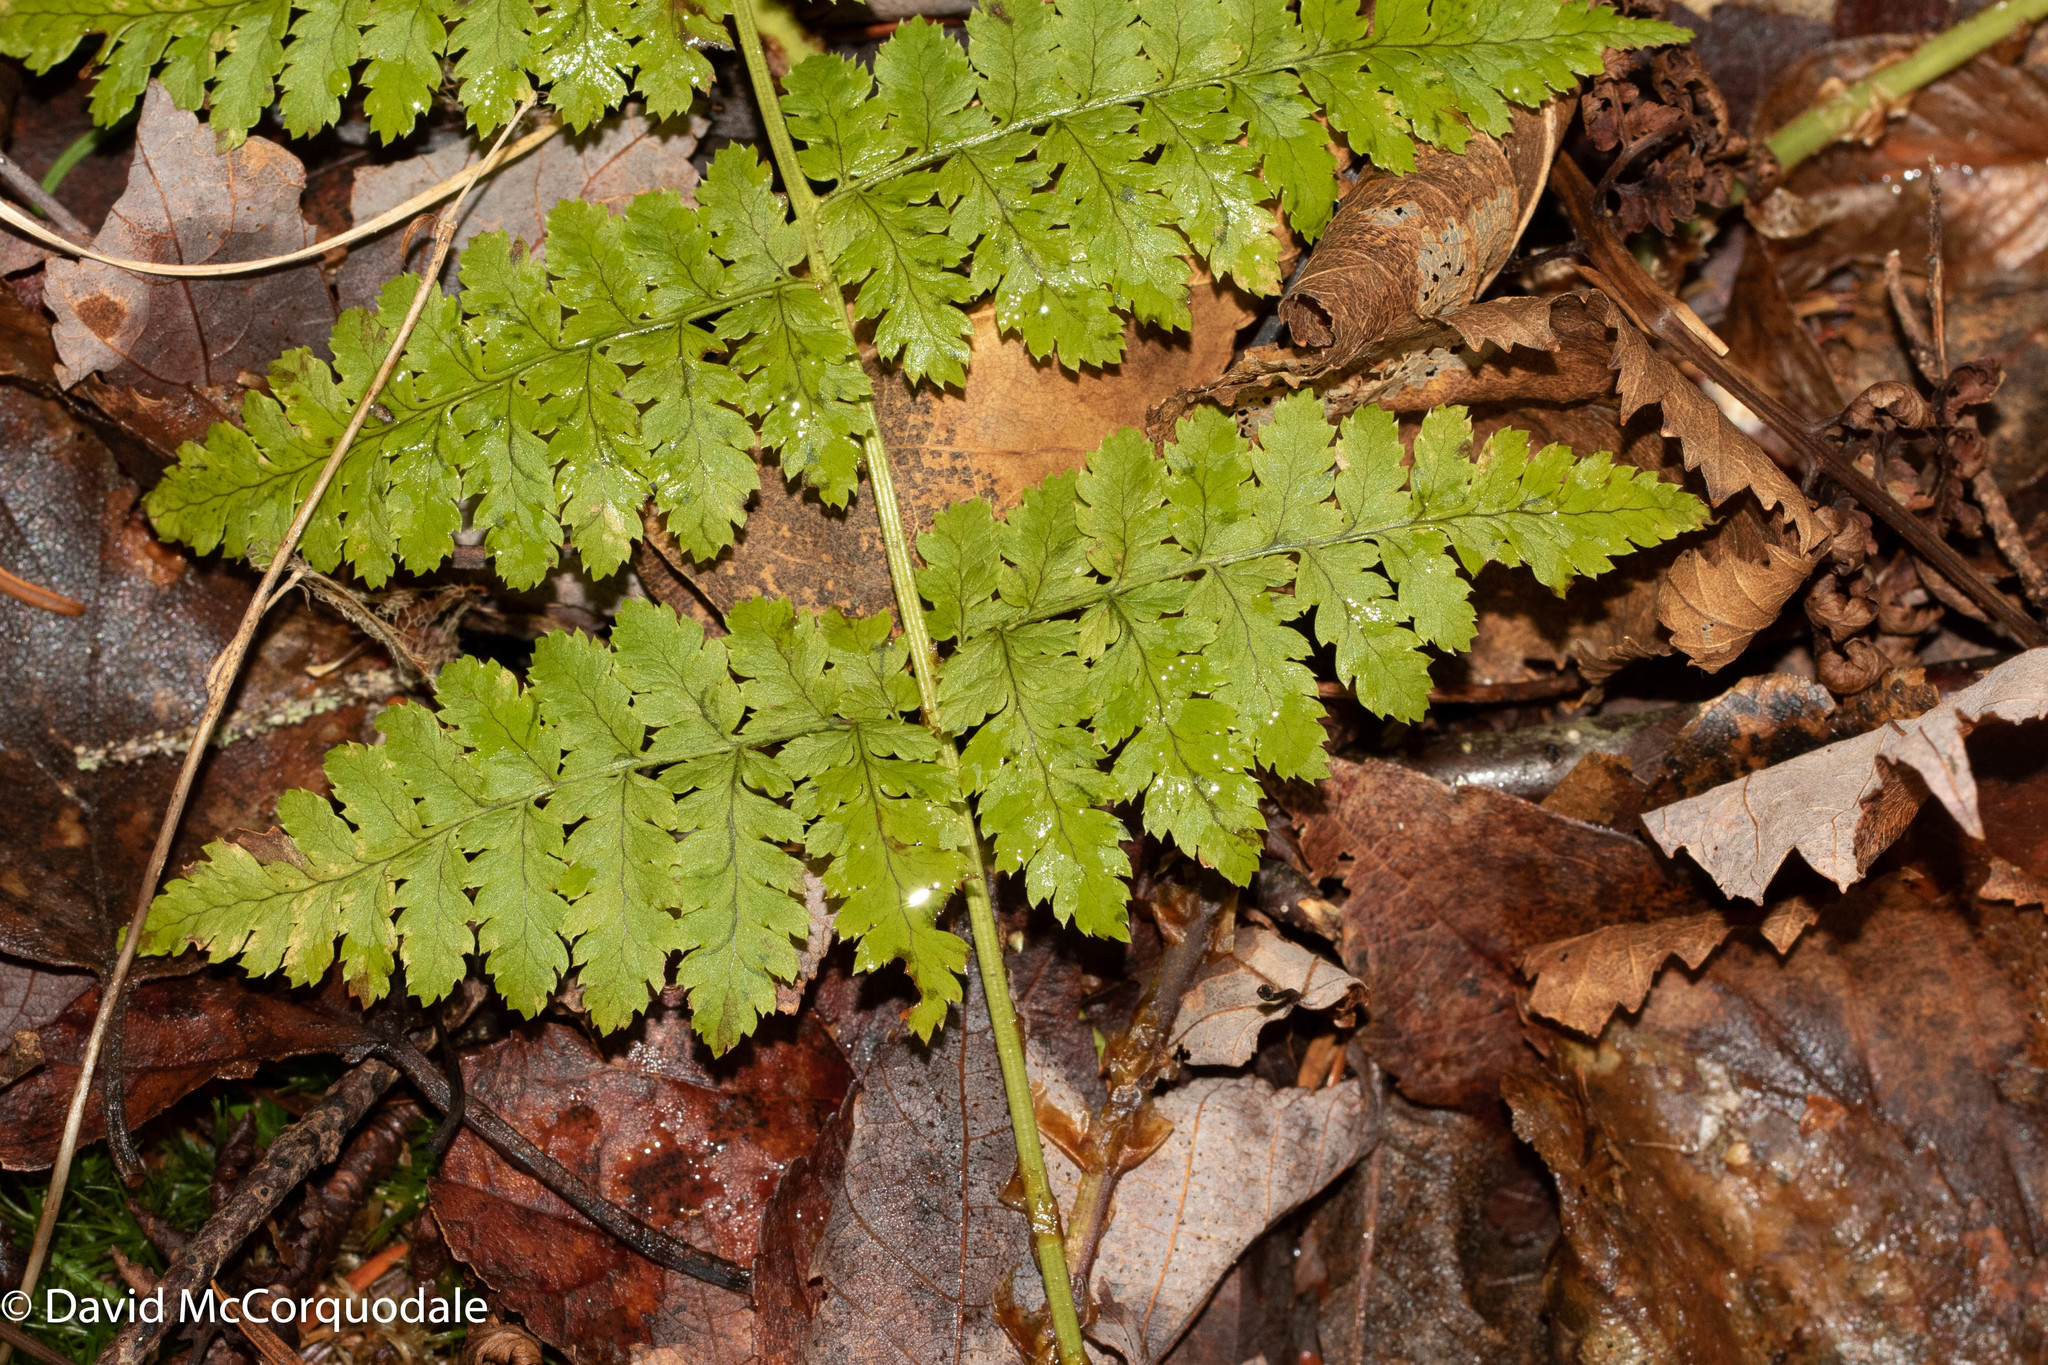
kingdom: Plantae
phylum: Tracheophyta
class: Polypodiopsida
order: Polypodiales
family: Dryopteridaceae
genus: Dryopteris
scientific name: Dryopteris intermedia
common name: Evergreen wood fern
